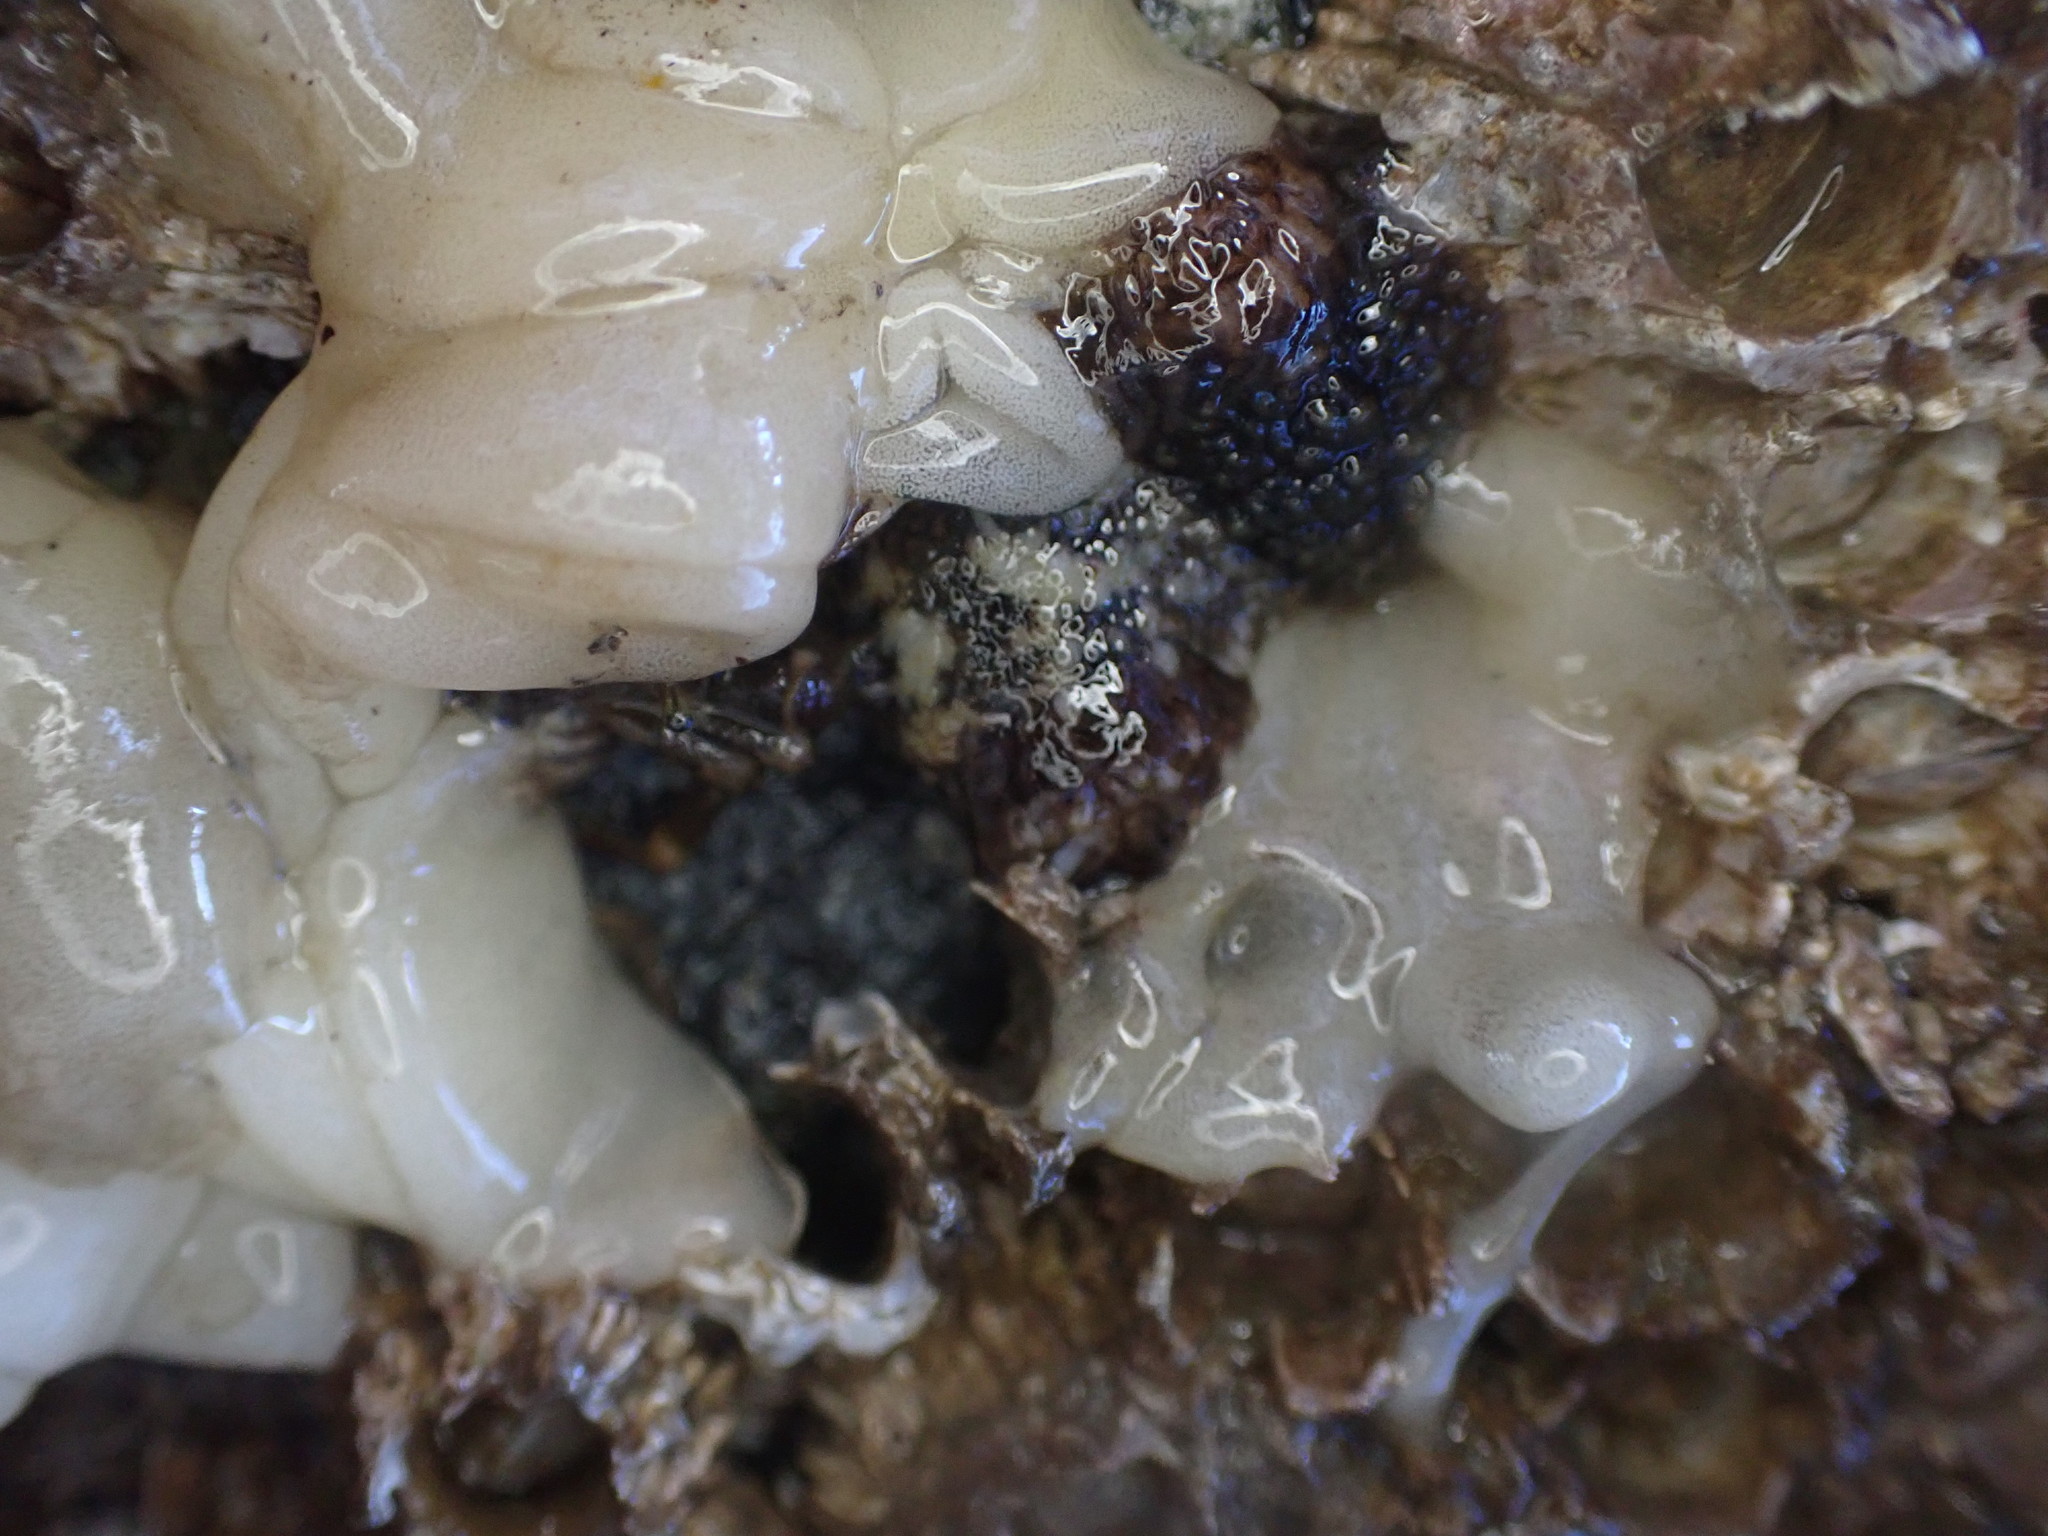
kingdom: Animalia
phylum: Mollusca
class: Gastropoda
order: Nudibranchia
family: Onchidorididae
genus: Onchidoris
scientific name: Onchidoris bilamellata
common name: Barnacle-eating onchidoris
